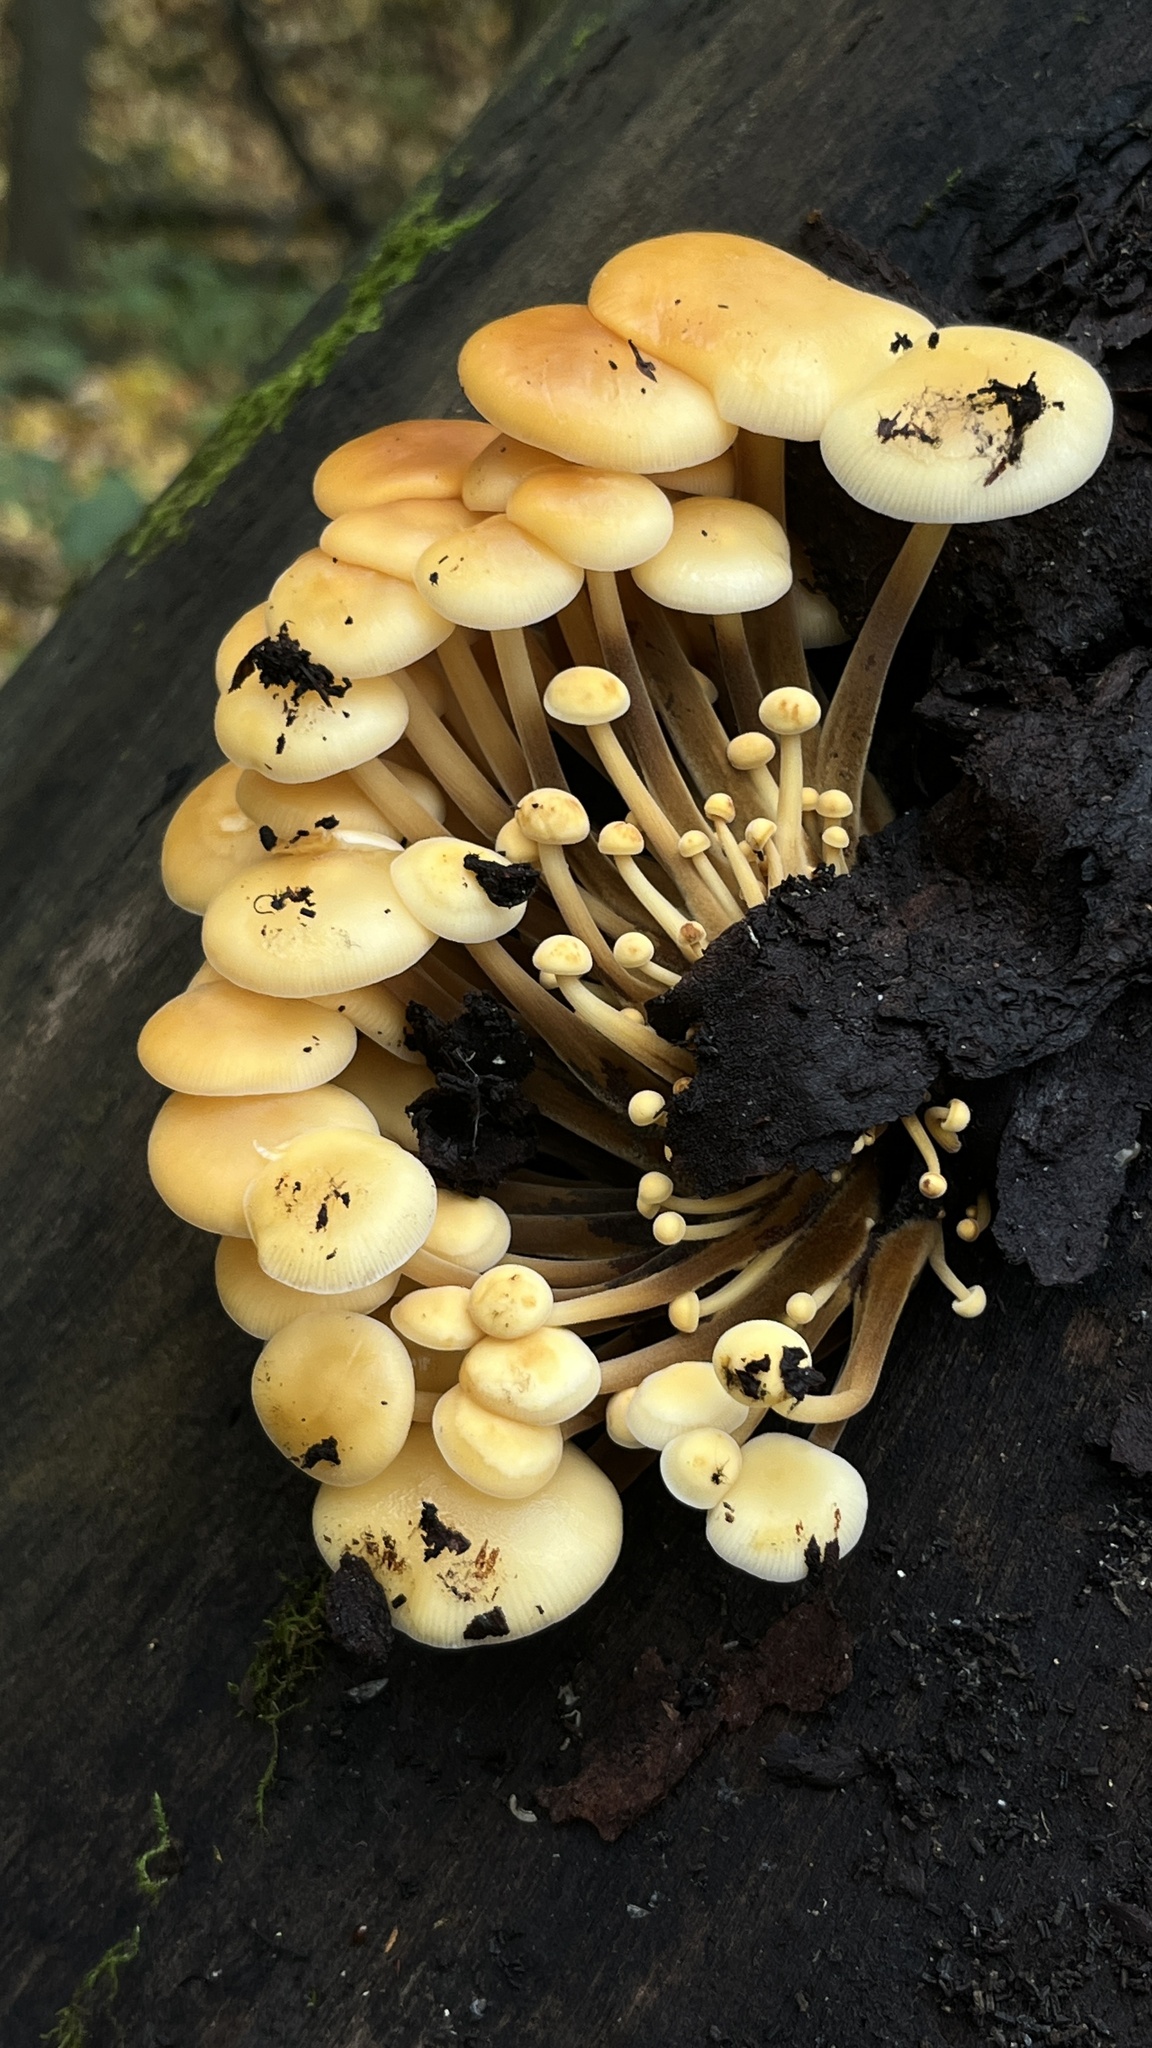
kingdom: Fungi
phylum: Basidiomycota
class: Agaricomycetes
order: Agaricales
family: Physalacriaceae
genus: Flammulina
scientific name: Flammulina
